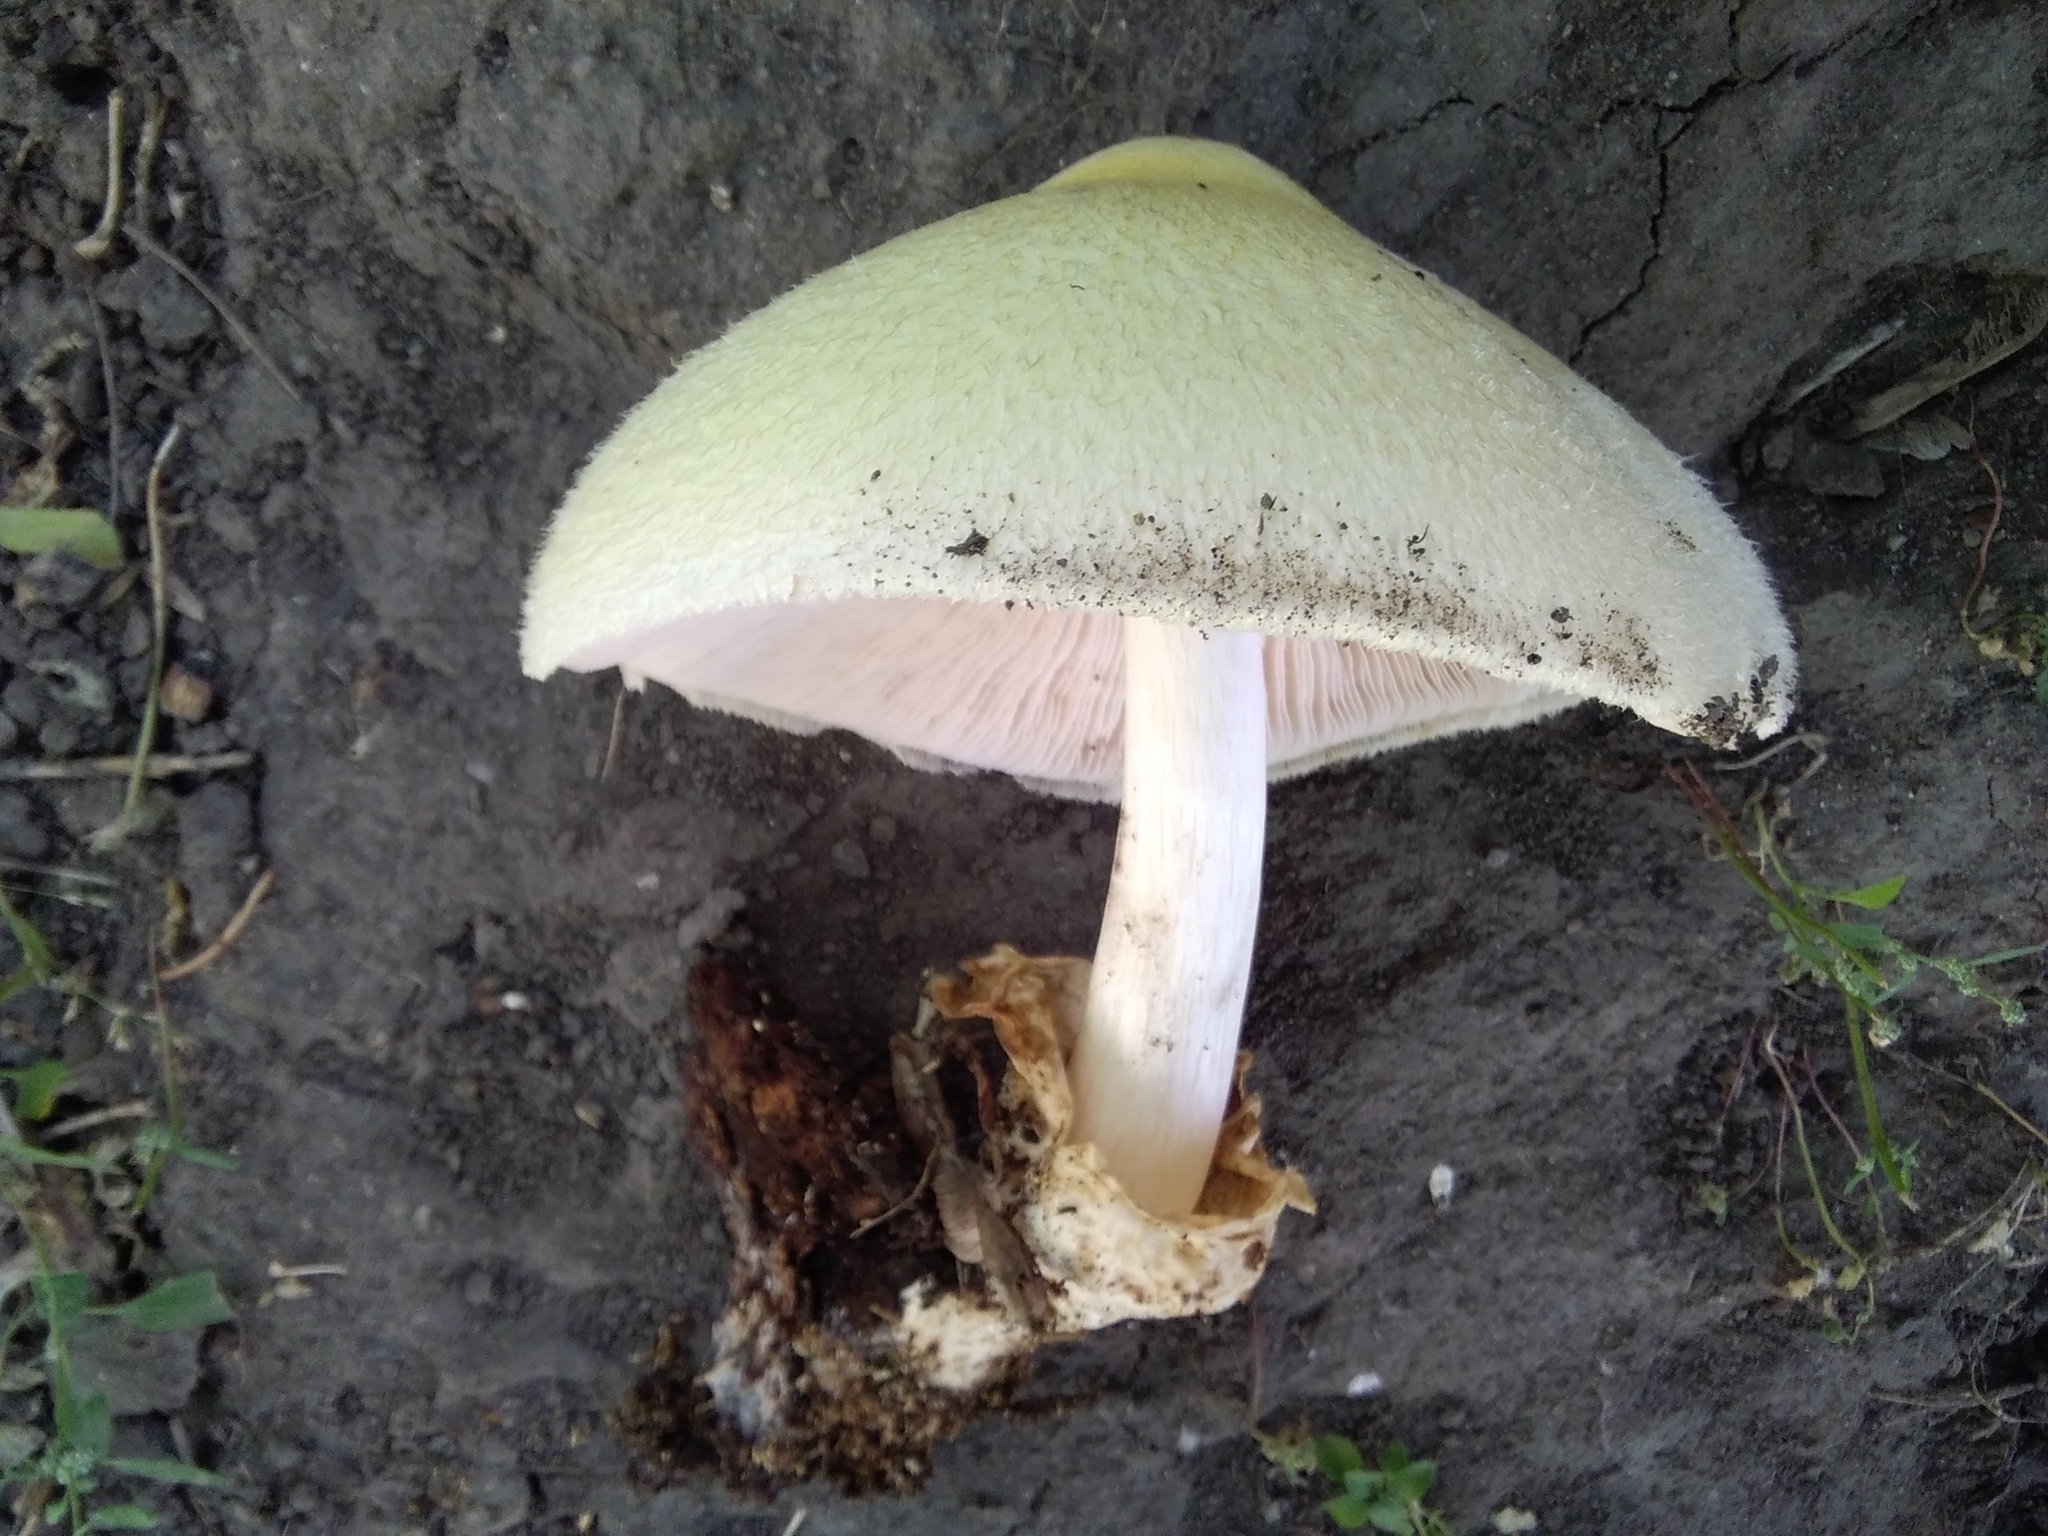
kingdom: Fungi
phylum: Basidiomycota
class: Agaricomycetes
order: Agaricales
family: Pluteaceae
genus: Volvariella
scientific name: Volvariella bombycina
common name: Silky rosegill
